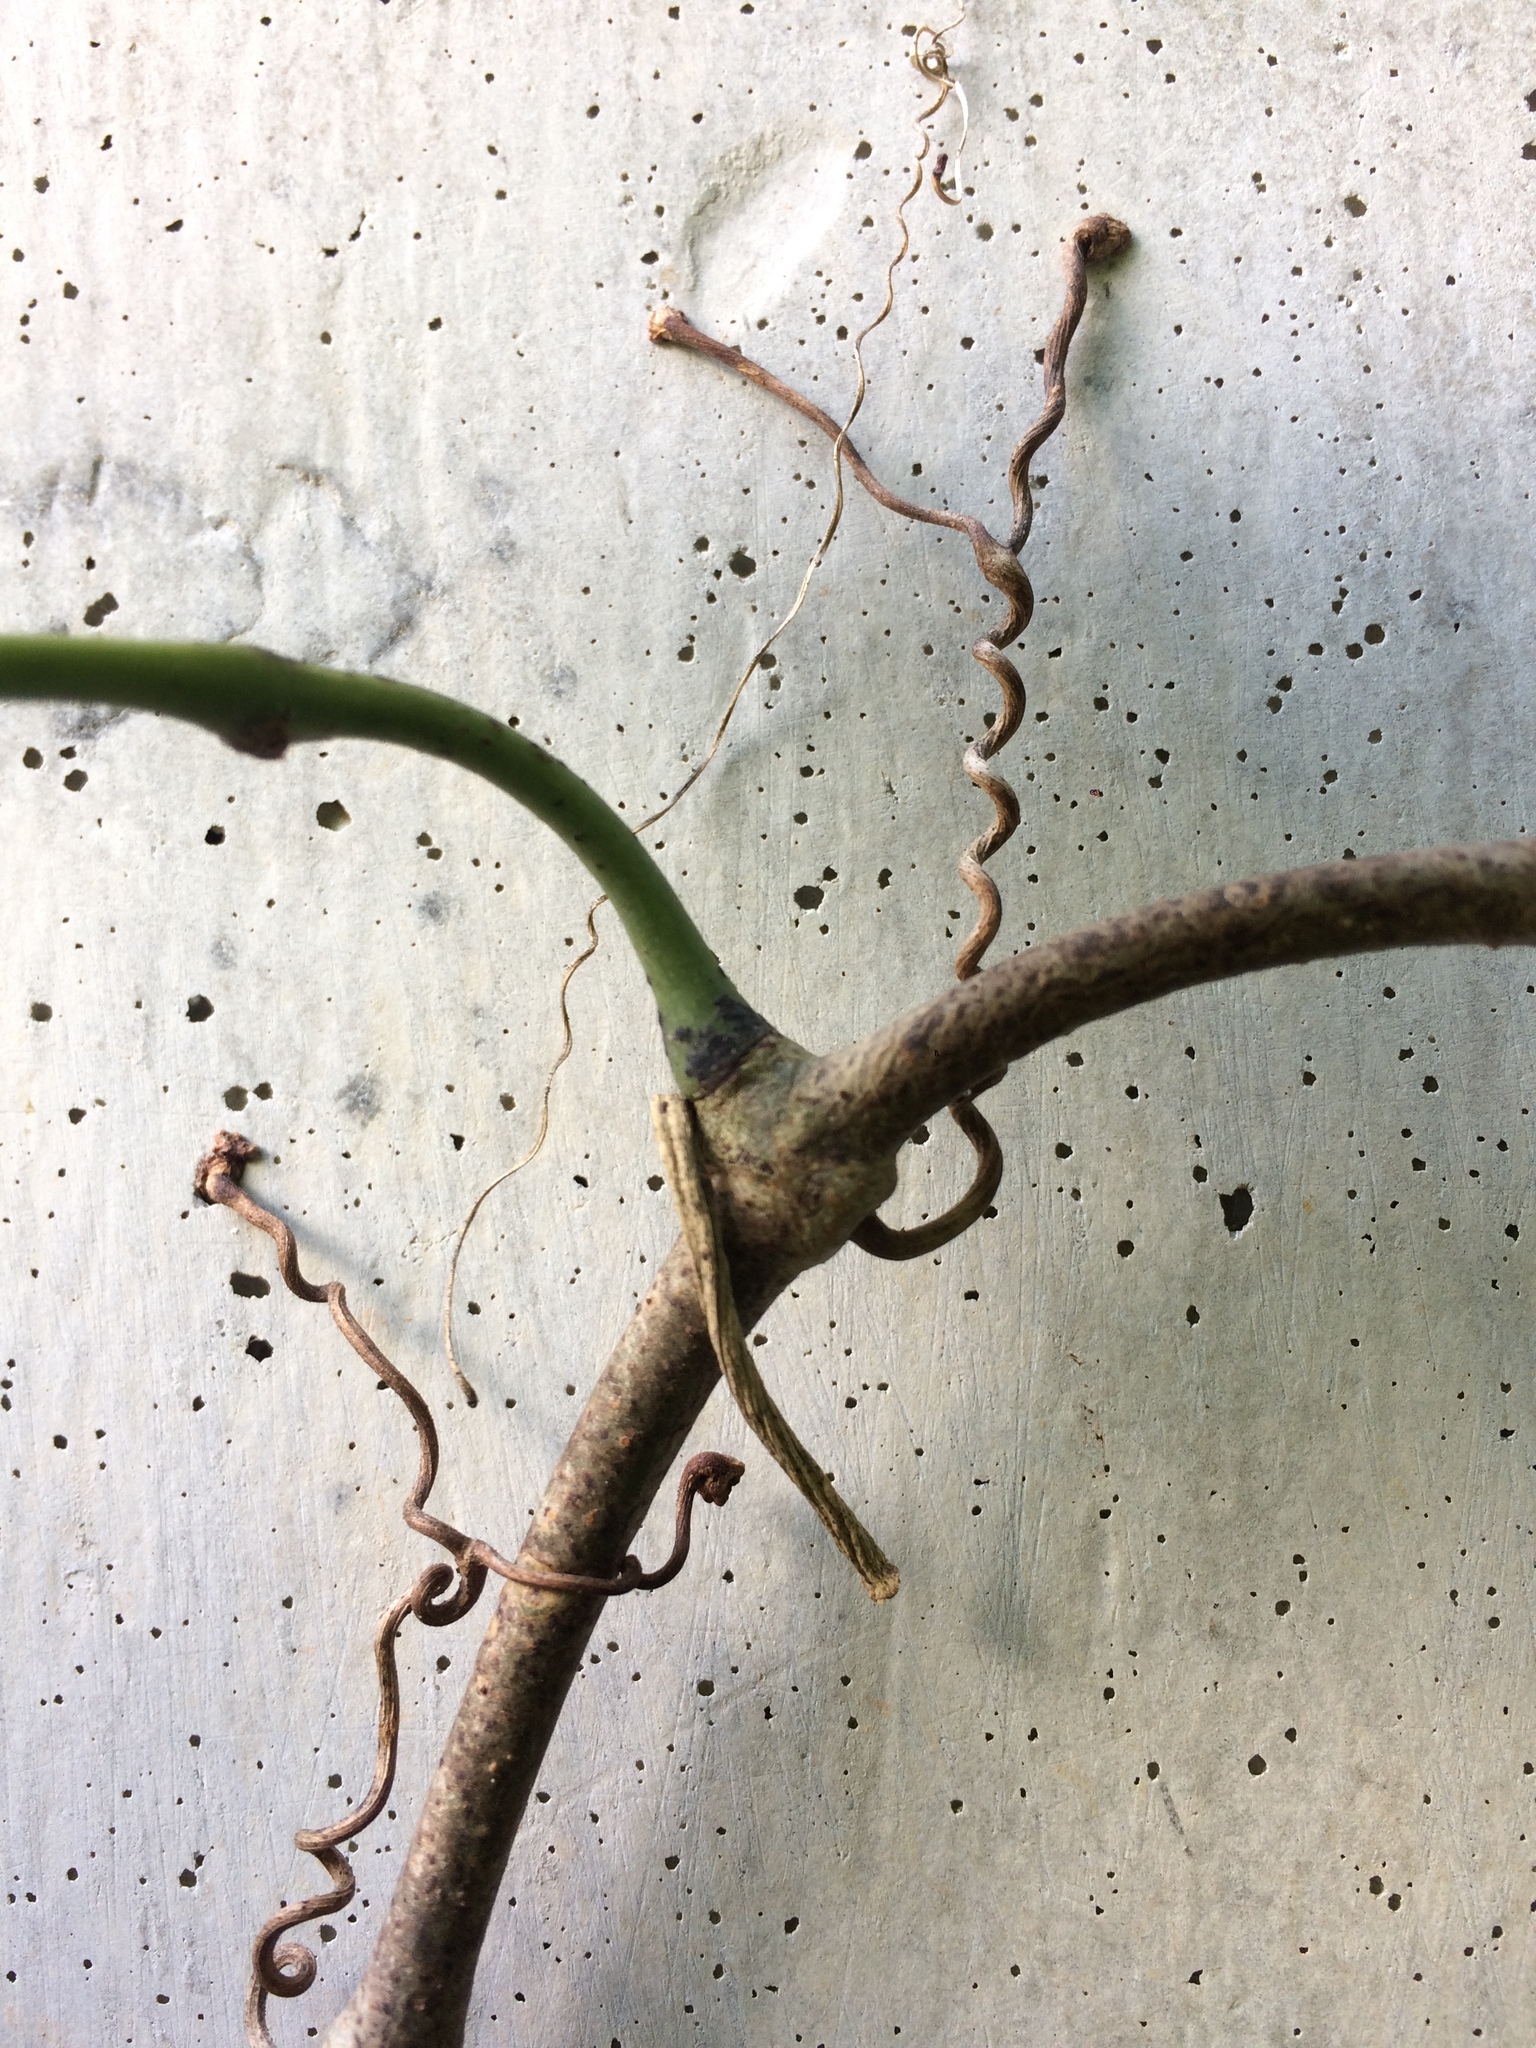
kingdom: Plantae
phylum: Tracheophyta
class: Magnoliopsida
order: Vitales
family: Vitaceae
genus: Cissus
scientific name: Cissus verticillata
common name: Princess vine
